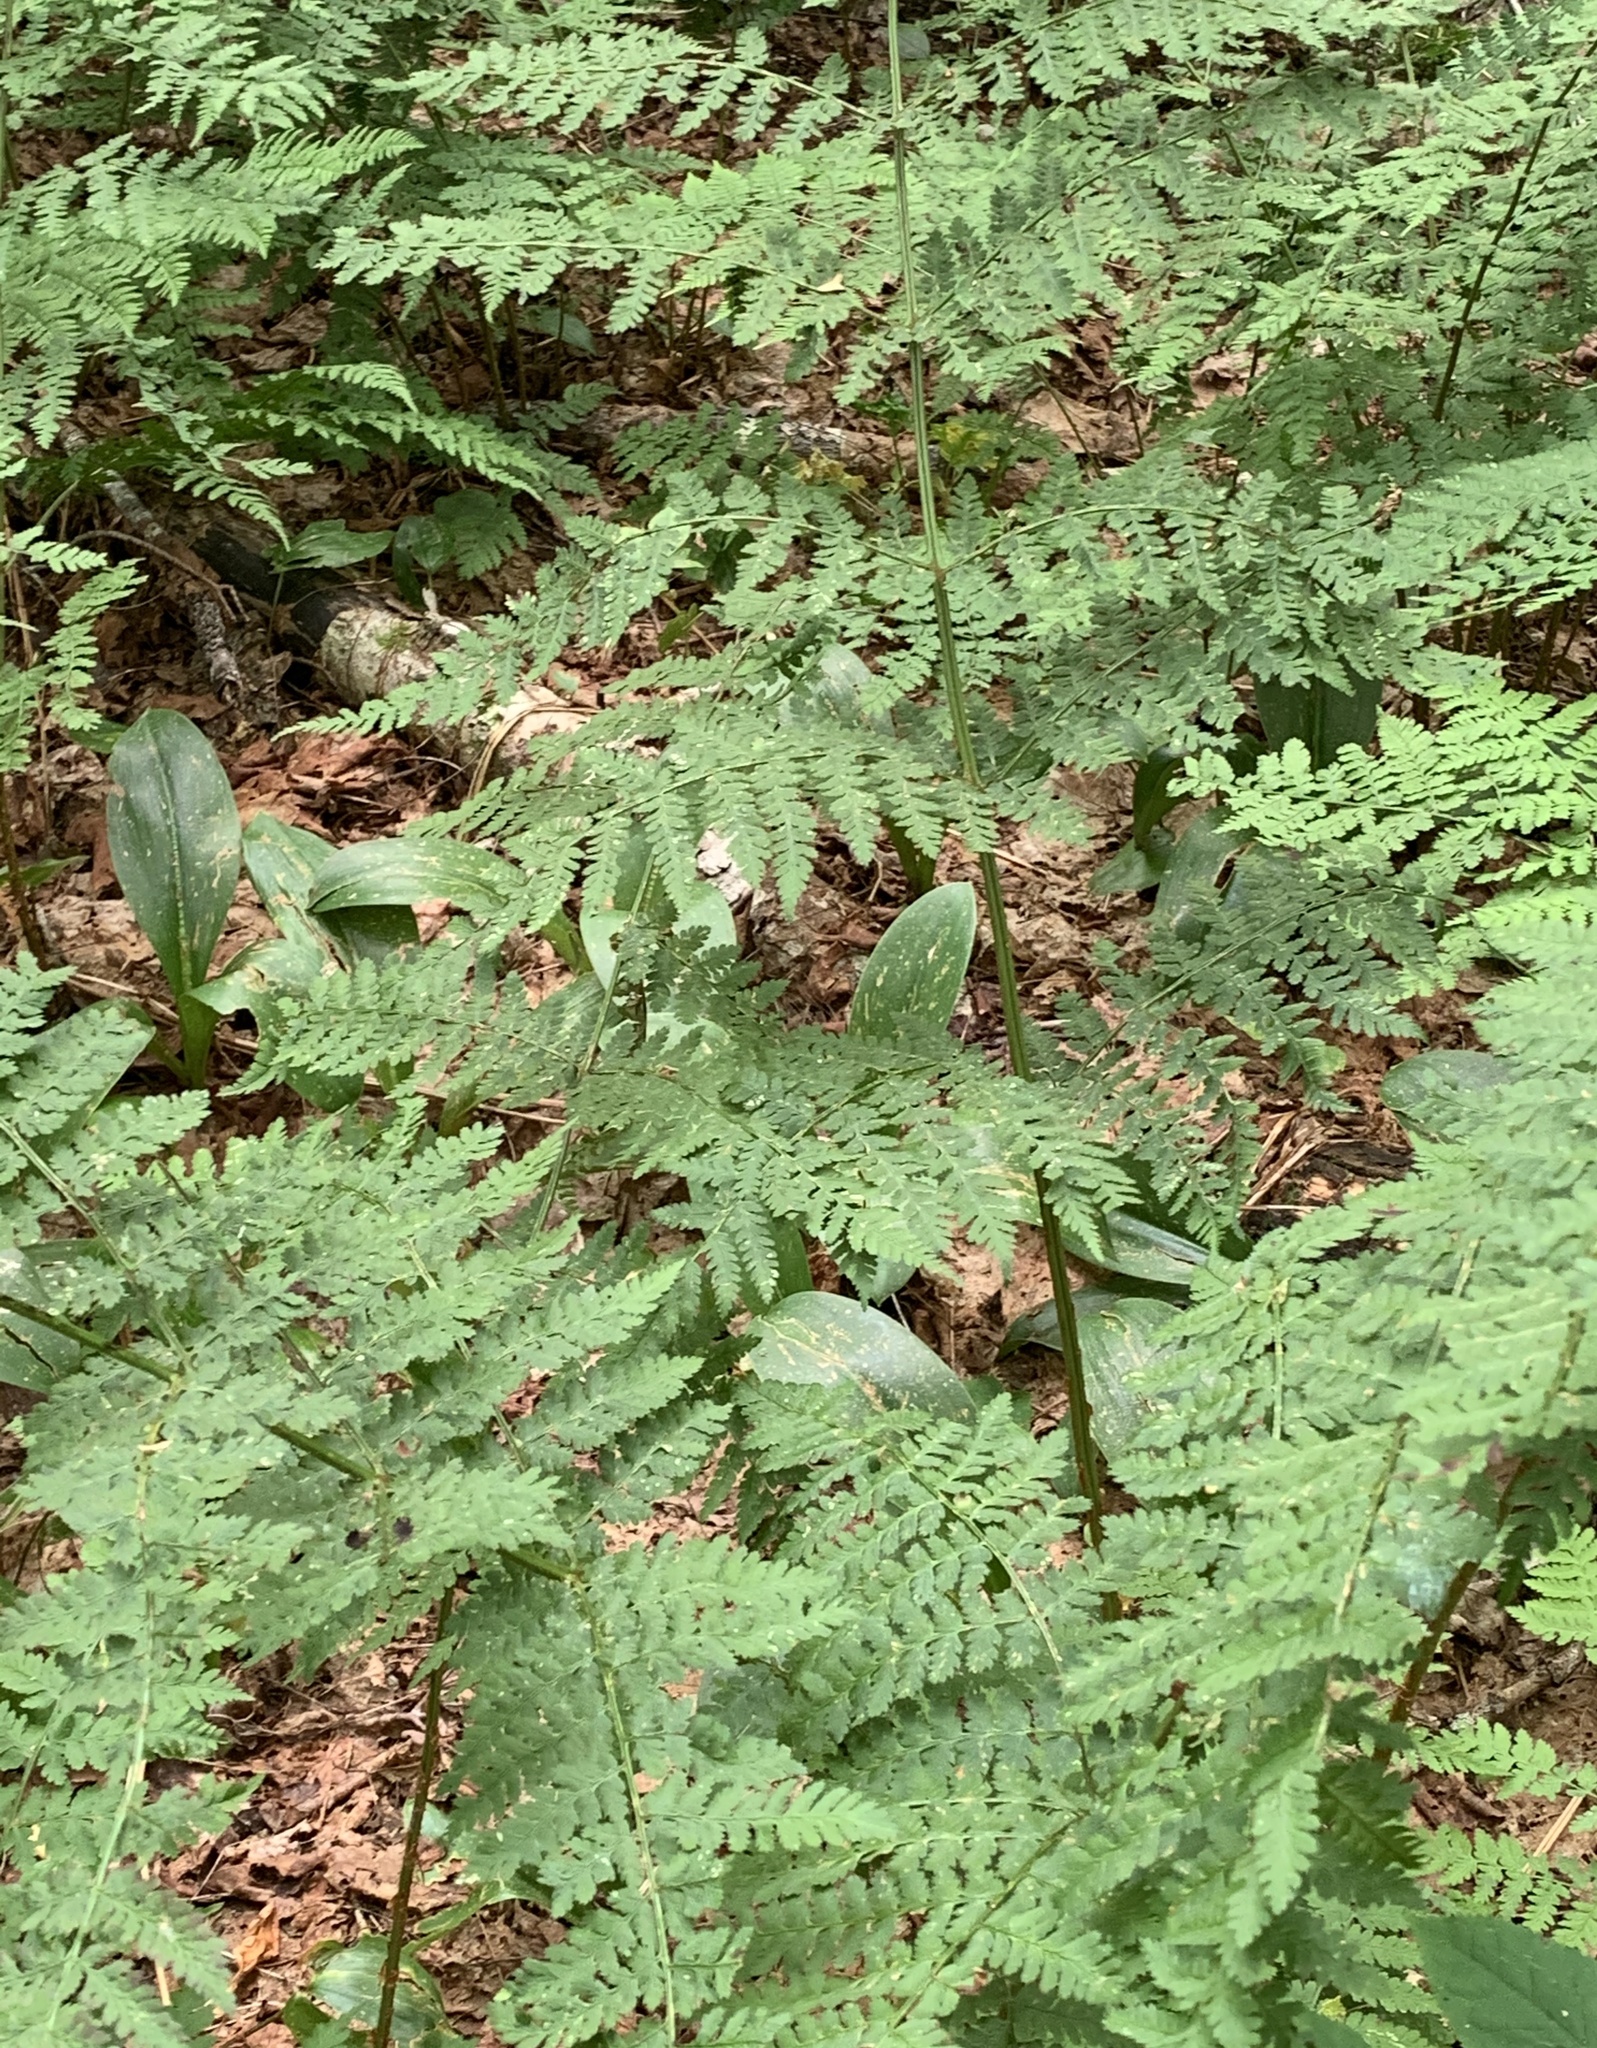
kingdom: Plantae
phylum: Tracheophyta
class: Polypodiopsida
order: Polypodiales
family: Dryopteridaceae
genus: Dryopteris
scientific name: Dryopteris intermedia
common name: Evergreen wood fern
